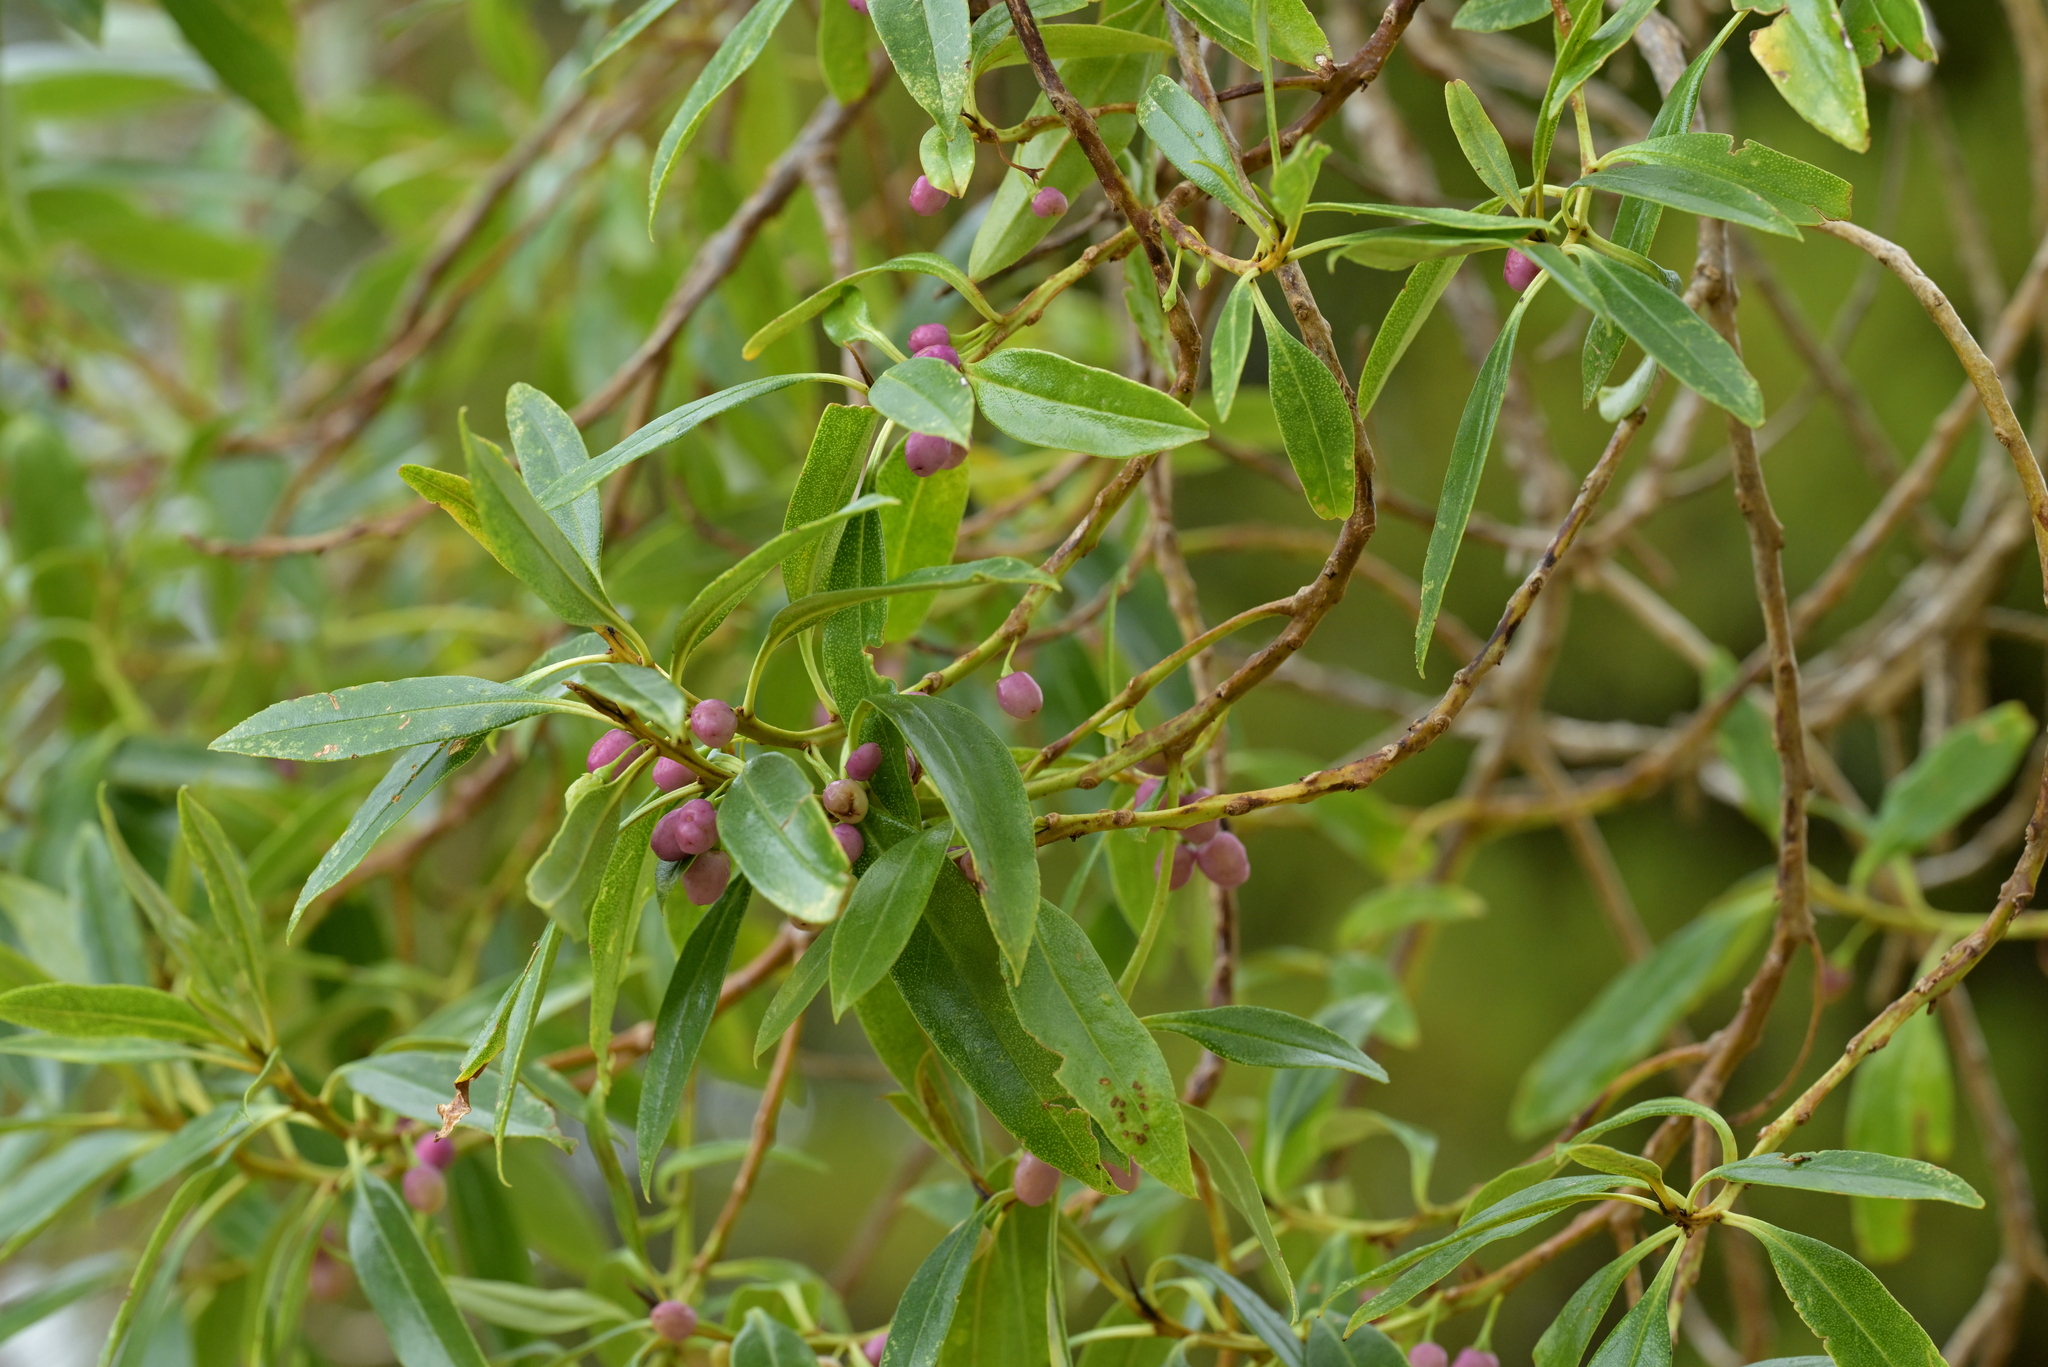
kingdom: Plantae
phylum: Tracheophyta
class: Magnoliopsida
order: Lamiales
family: Scrophulariaceae
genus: Myoporum
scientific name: Myoporum laetum
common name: Ngaio tree
